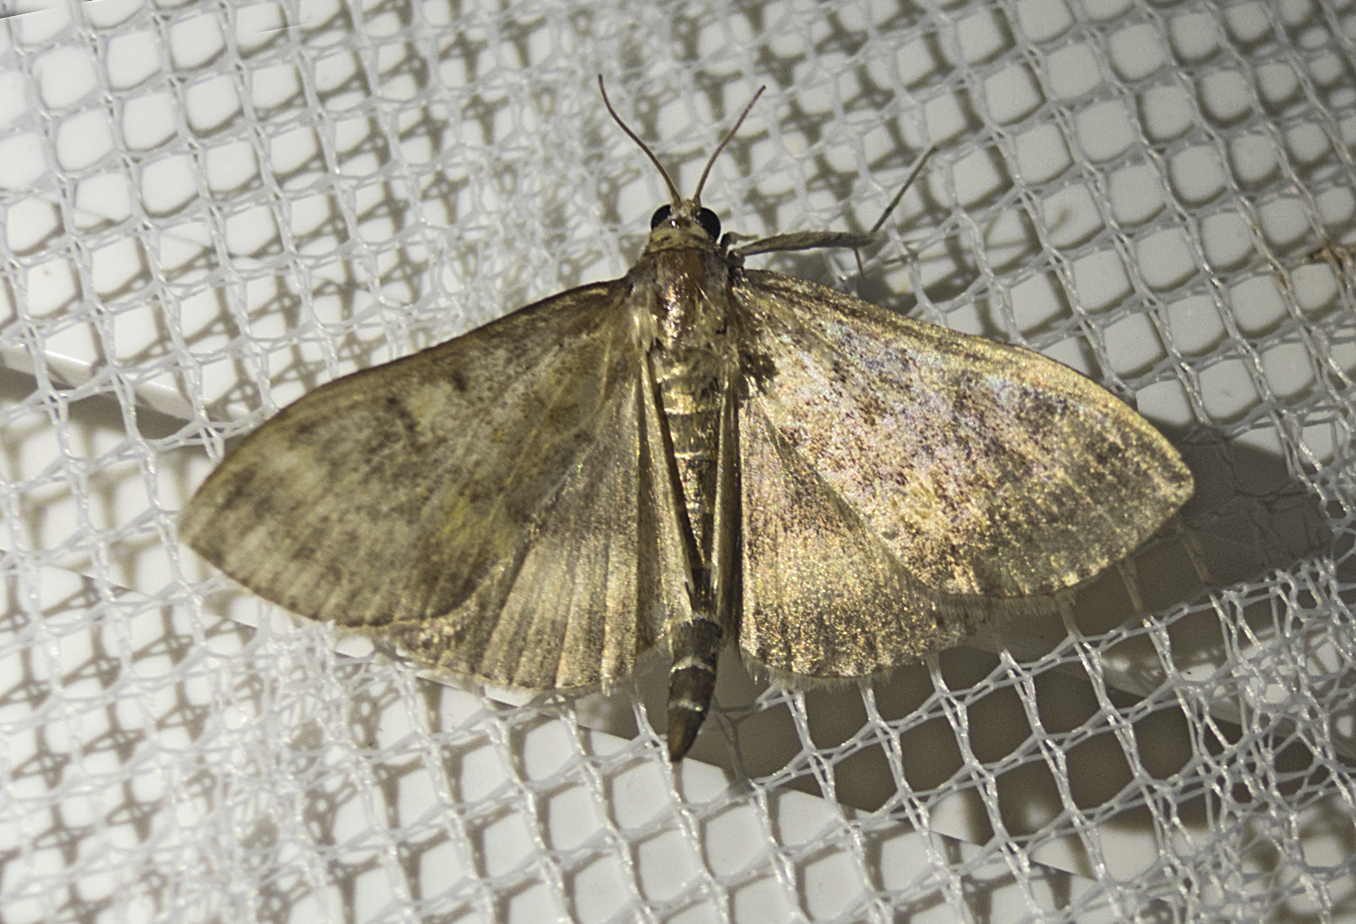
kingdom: Animalia
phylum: Arthropoda
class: Insecta
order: Lepidoptera
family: Crambidae
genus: Ostrinia
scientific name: Ostrinia nubilalis
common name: European corn borer
